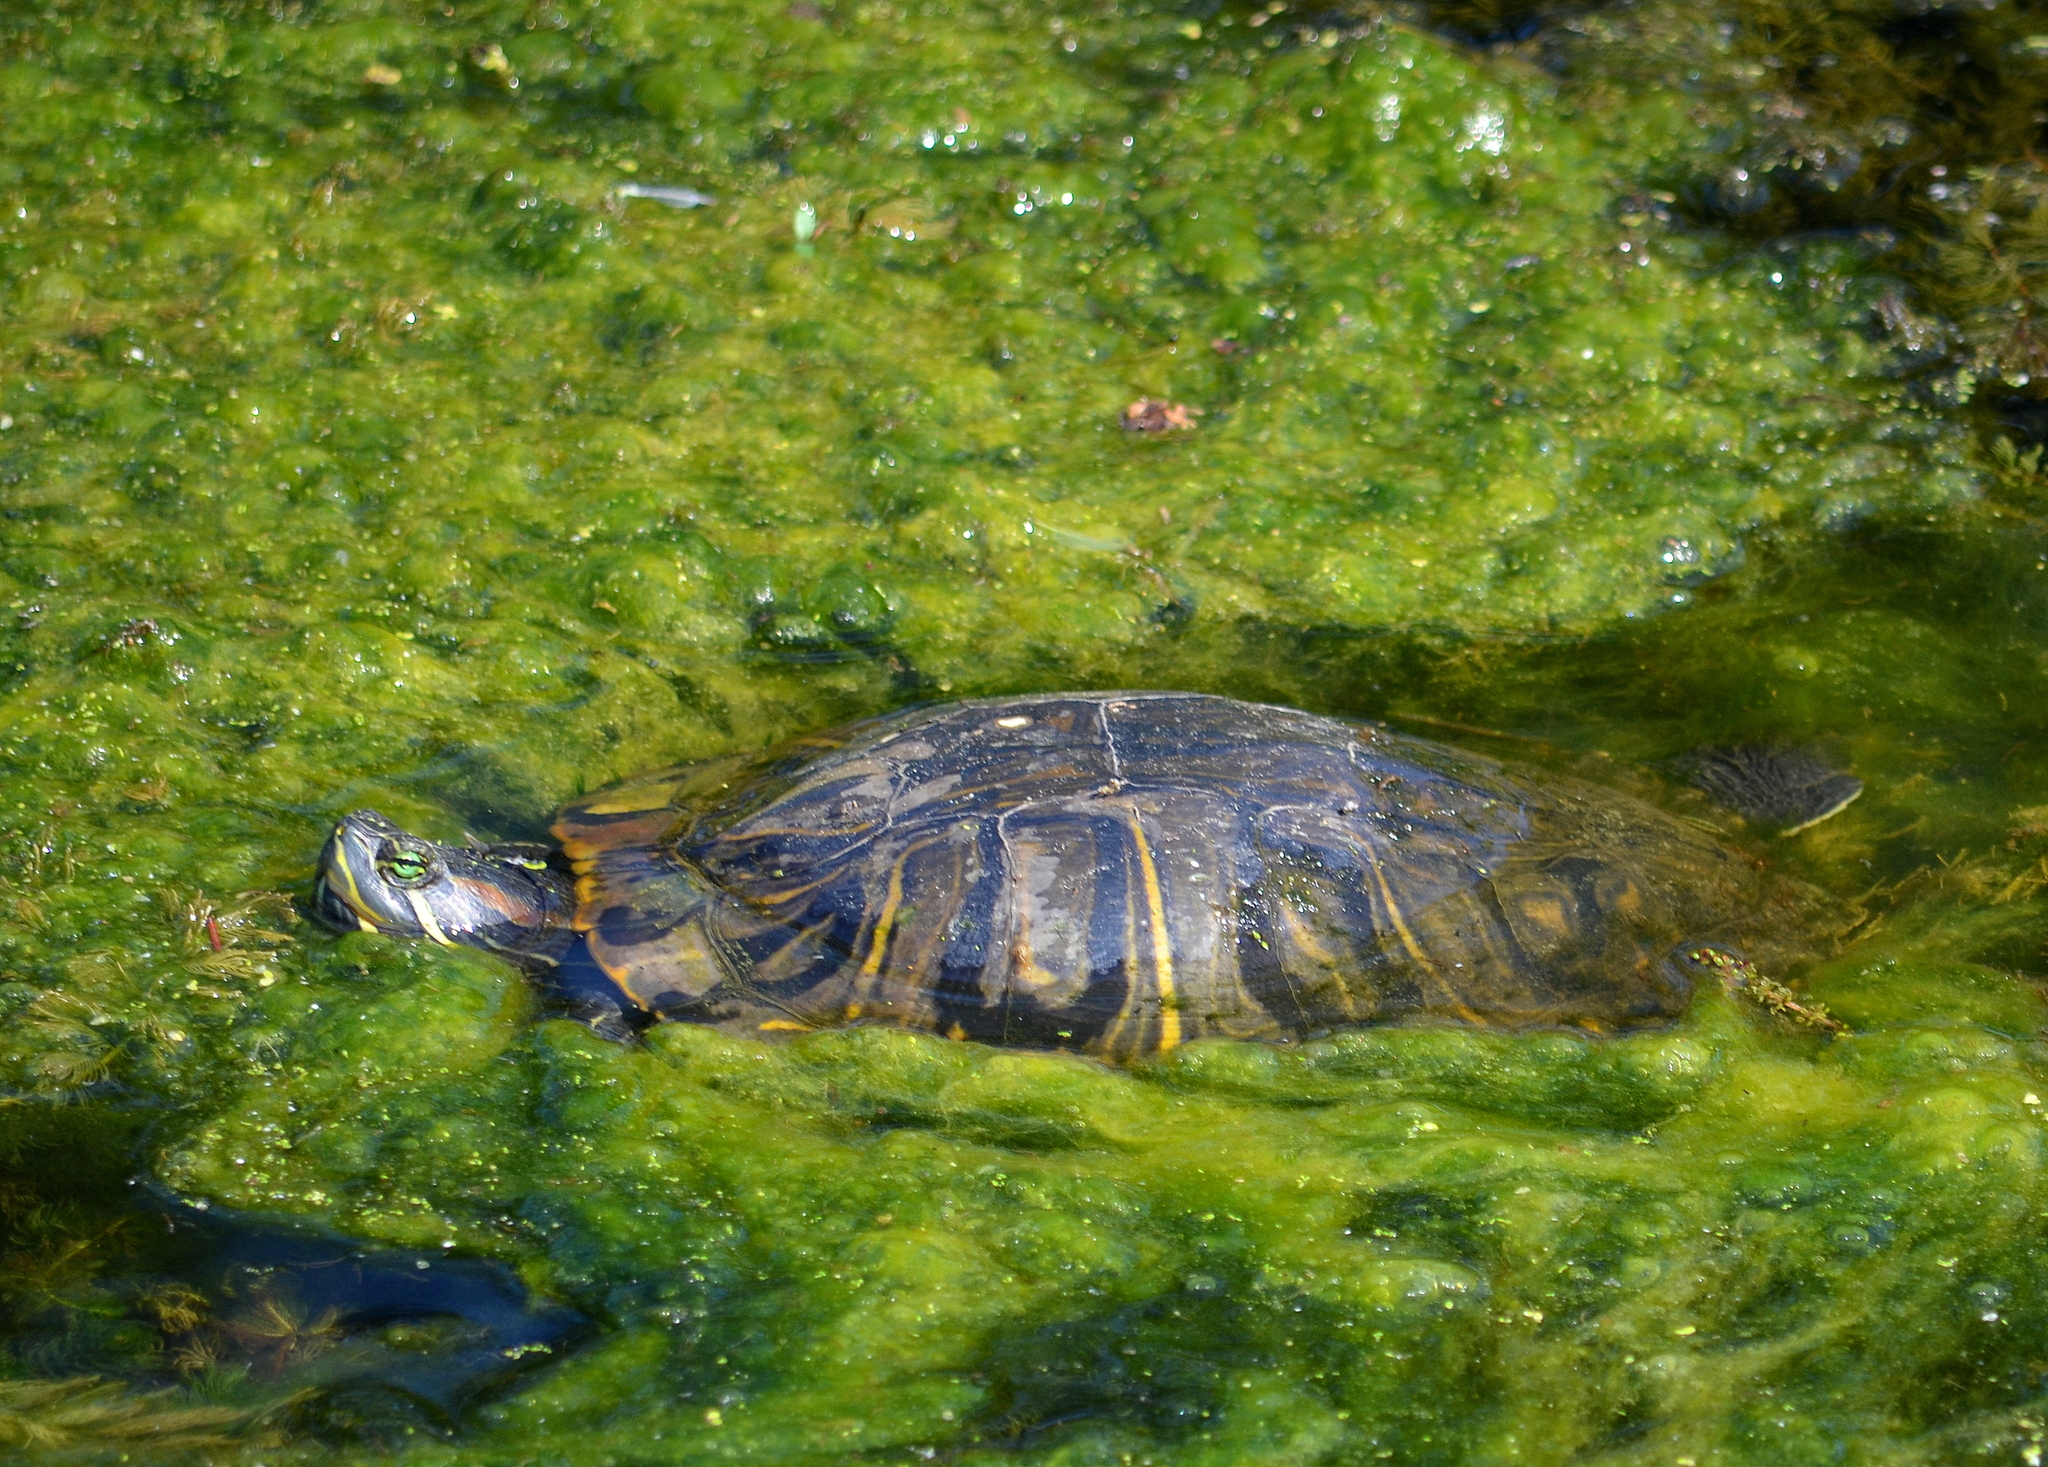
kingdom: Animalia
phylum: Chordata
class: Testudines
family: Emydidae
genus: Trachemys
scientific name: Trachemys scripta
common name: Slider
